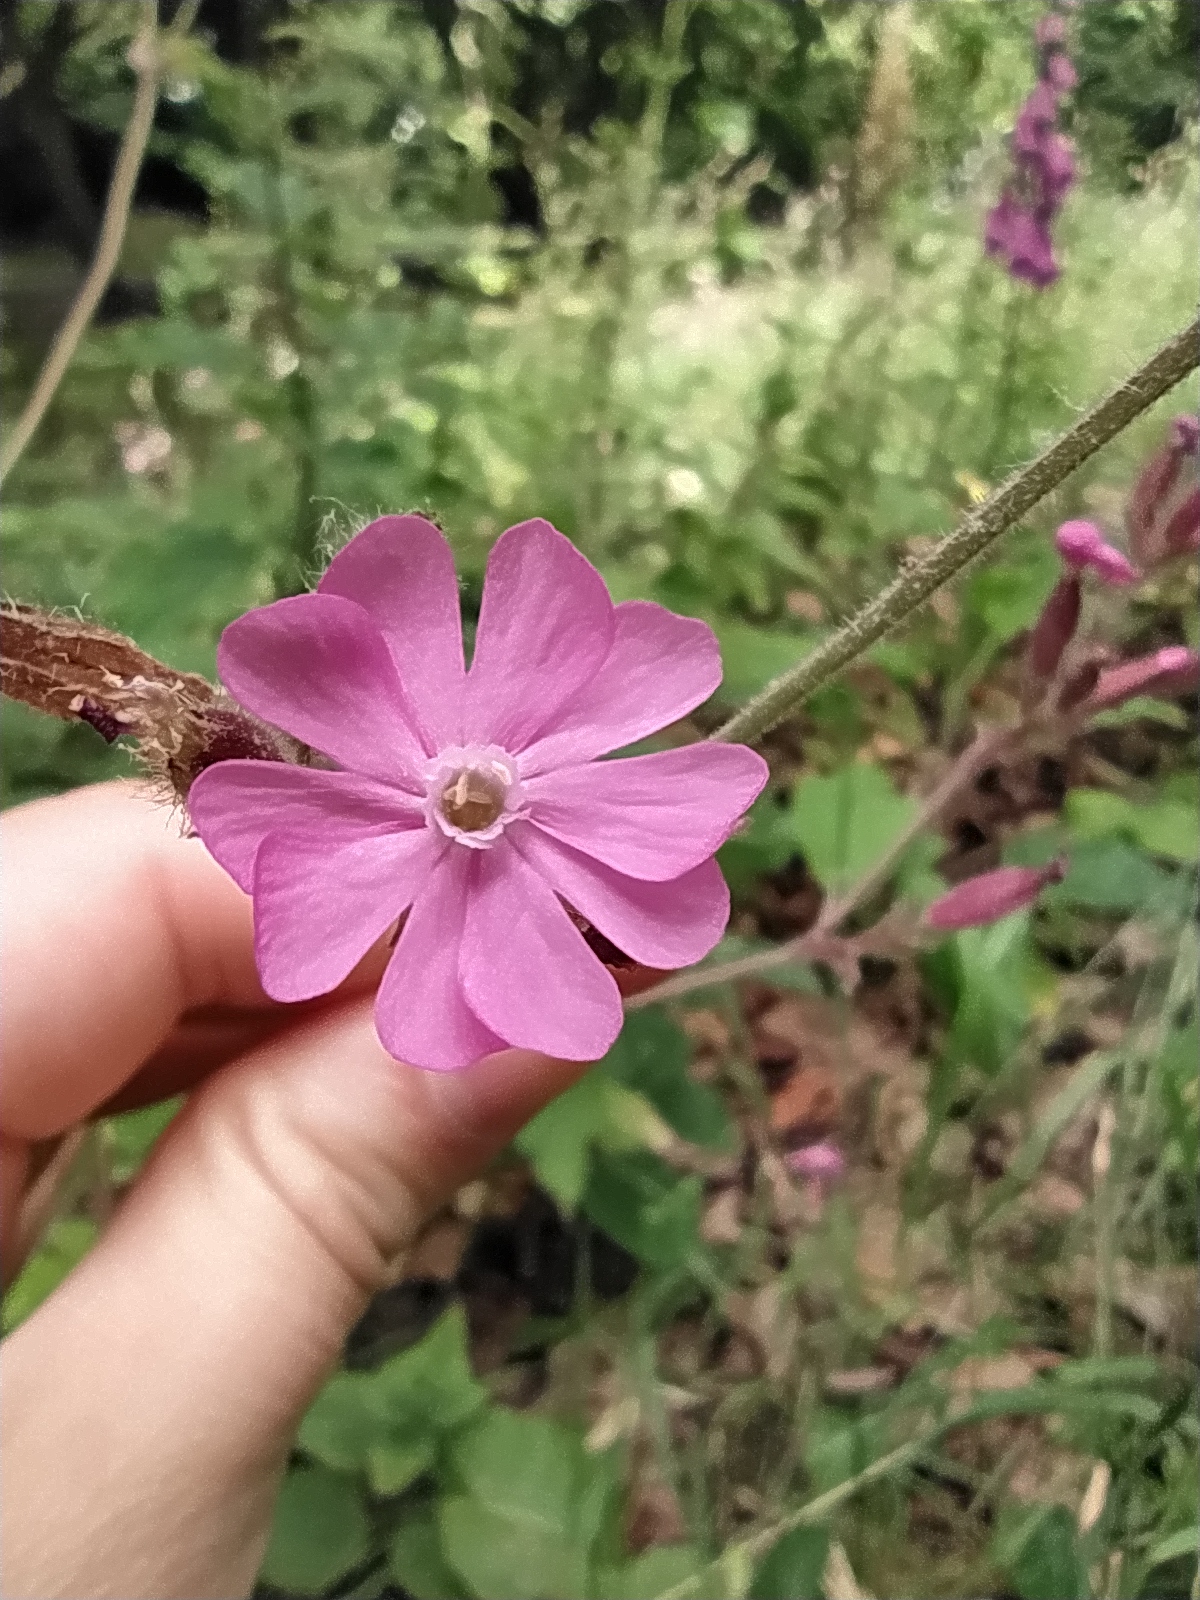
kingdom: Plantae
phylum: Tracheophyta
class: Magnoliopsida
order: Caryophyllales
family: Caryophyllaceae
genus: Silene
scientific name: Silene dioica
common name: Red campion
